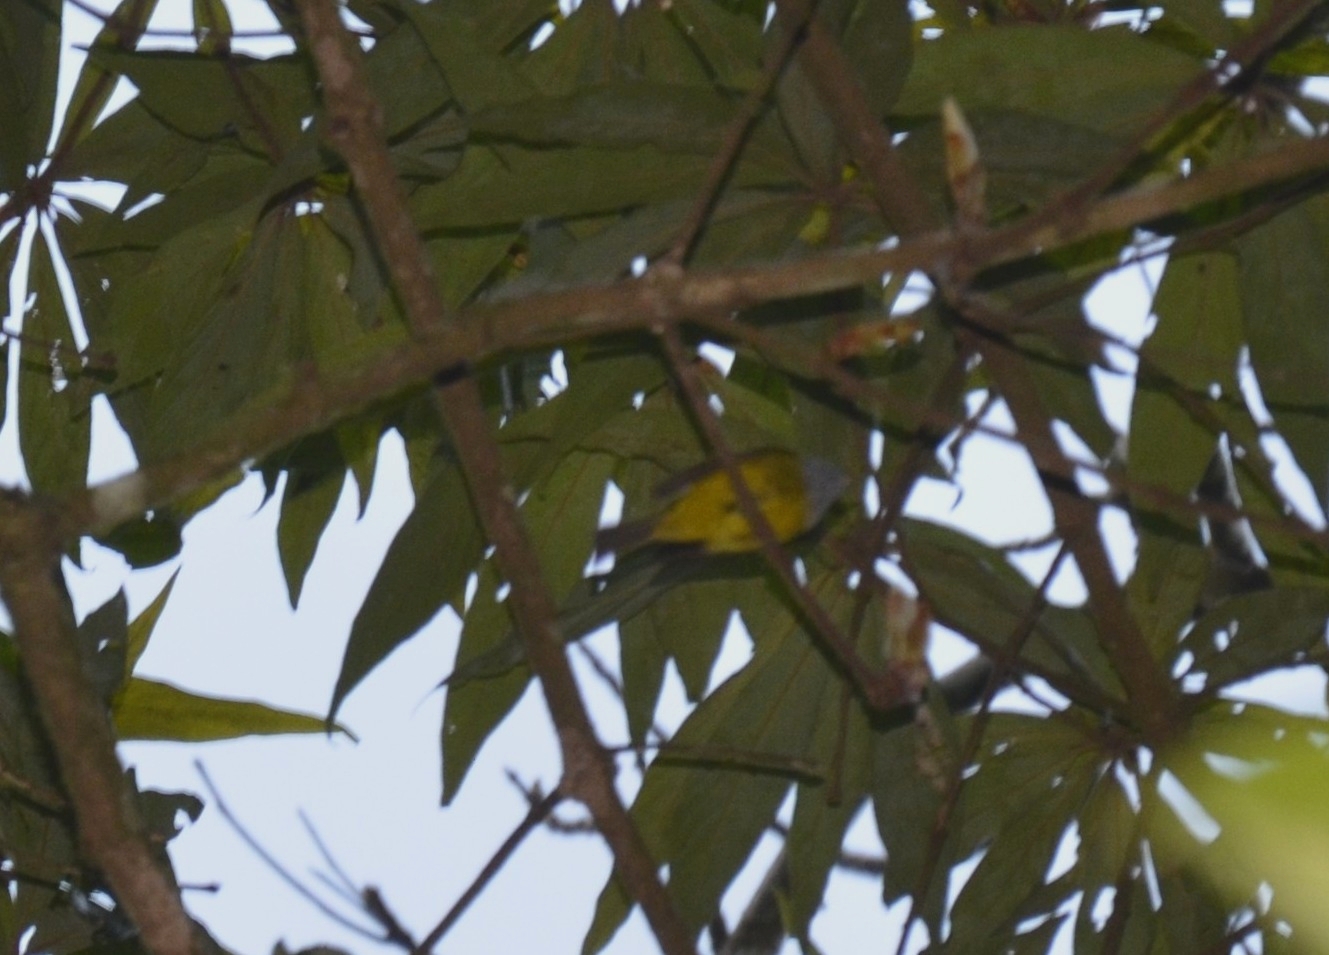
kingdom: Animalia
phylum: Chordata
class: Aves
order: Passeriformes
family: Stenostiridae
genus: Culicicapa
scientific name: Culicicapa ceylonensis
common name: Grey-headed canary-flycatcher
